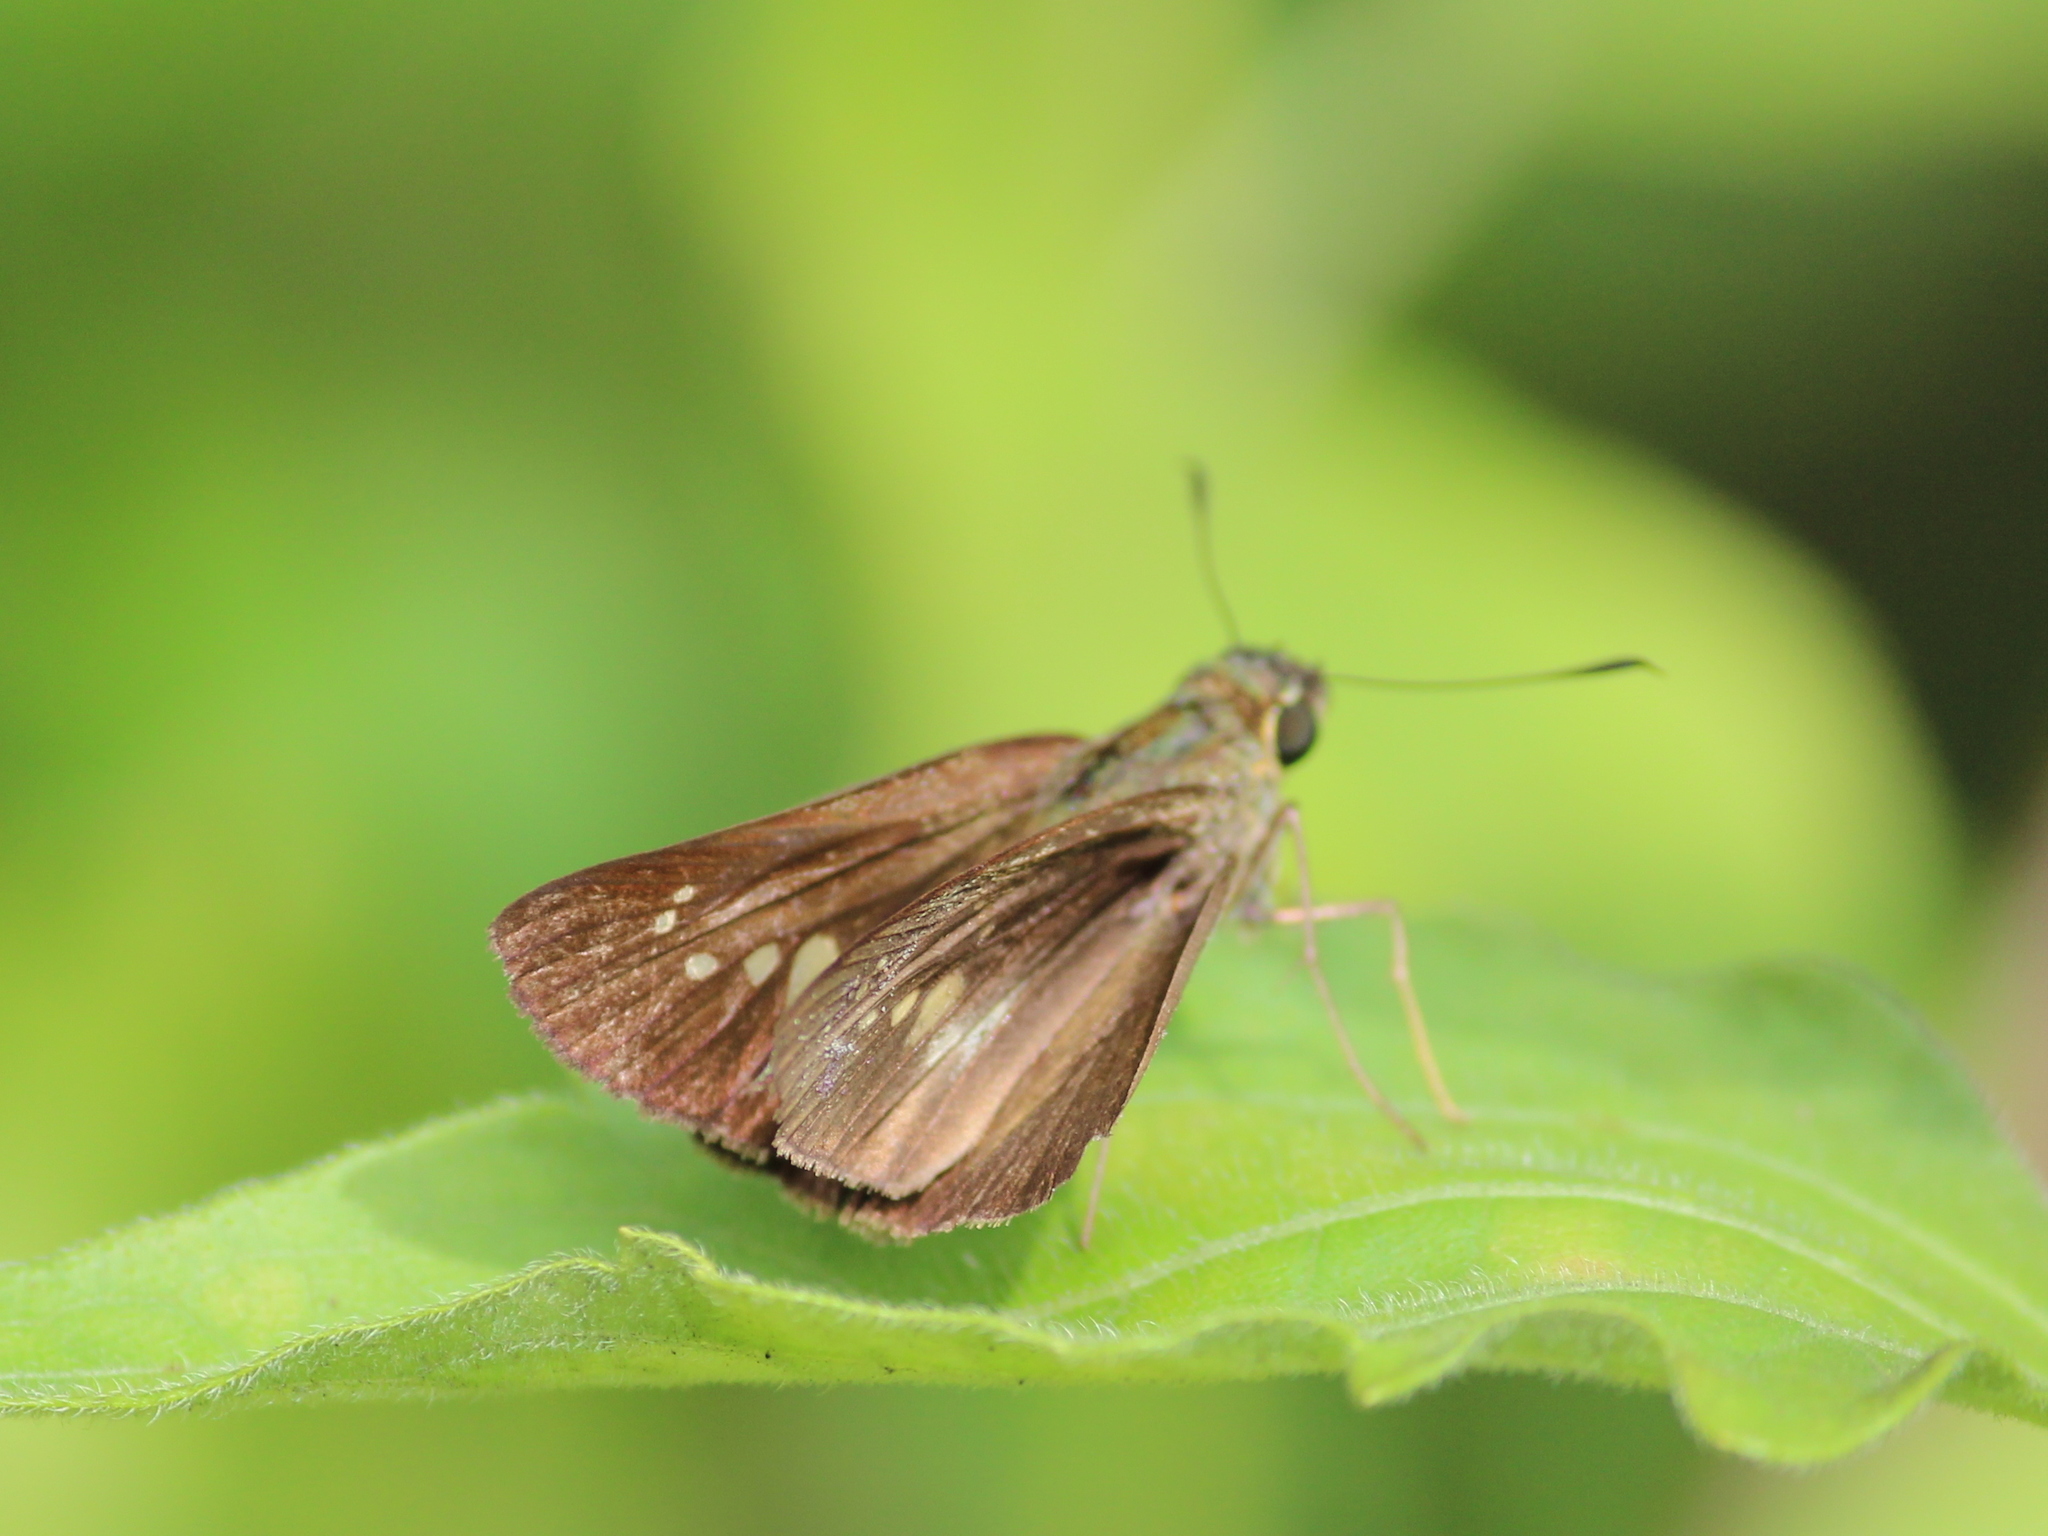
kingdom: Animalia
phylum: Arthropoda
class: Insecta
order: Lepidoptera
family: Hesperiidae
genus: Baoris
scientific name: Baoris farri
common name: Paintbrush swift
